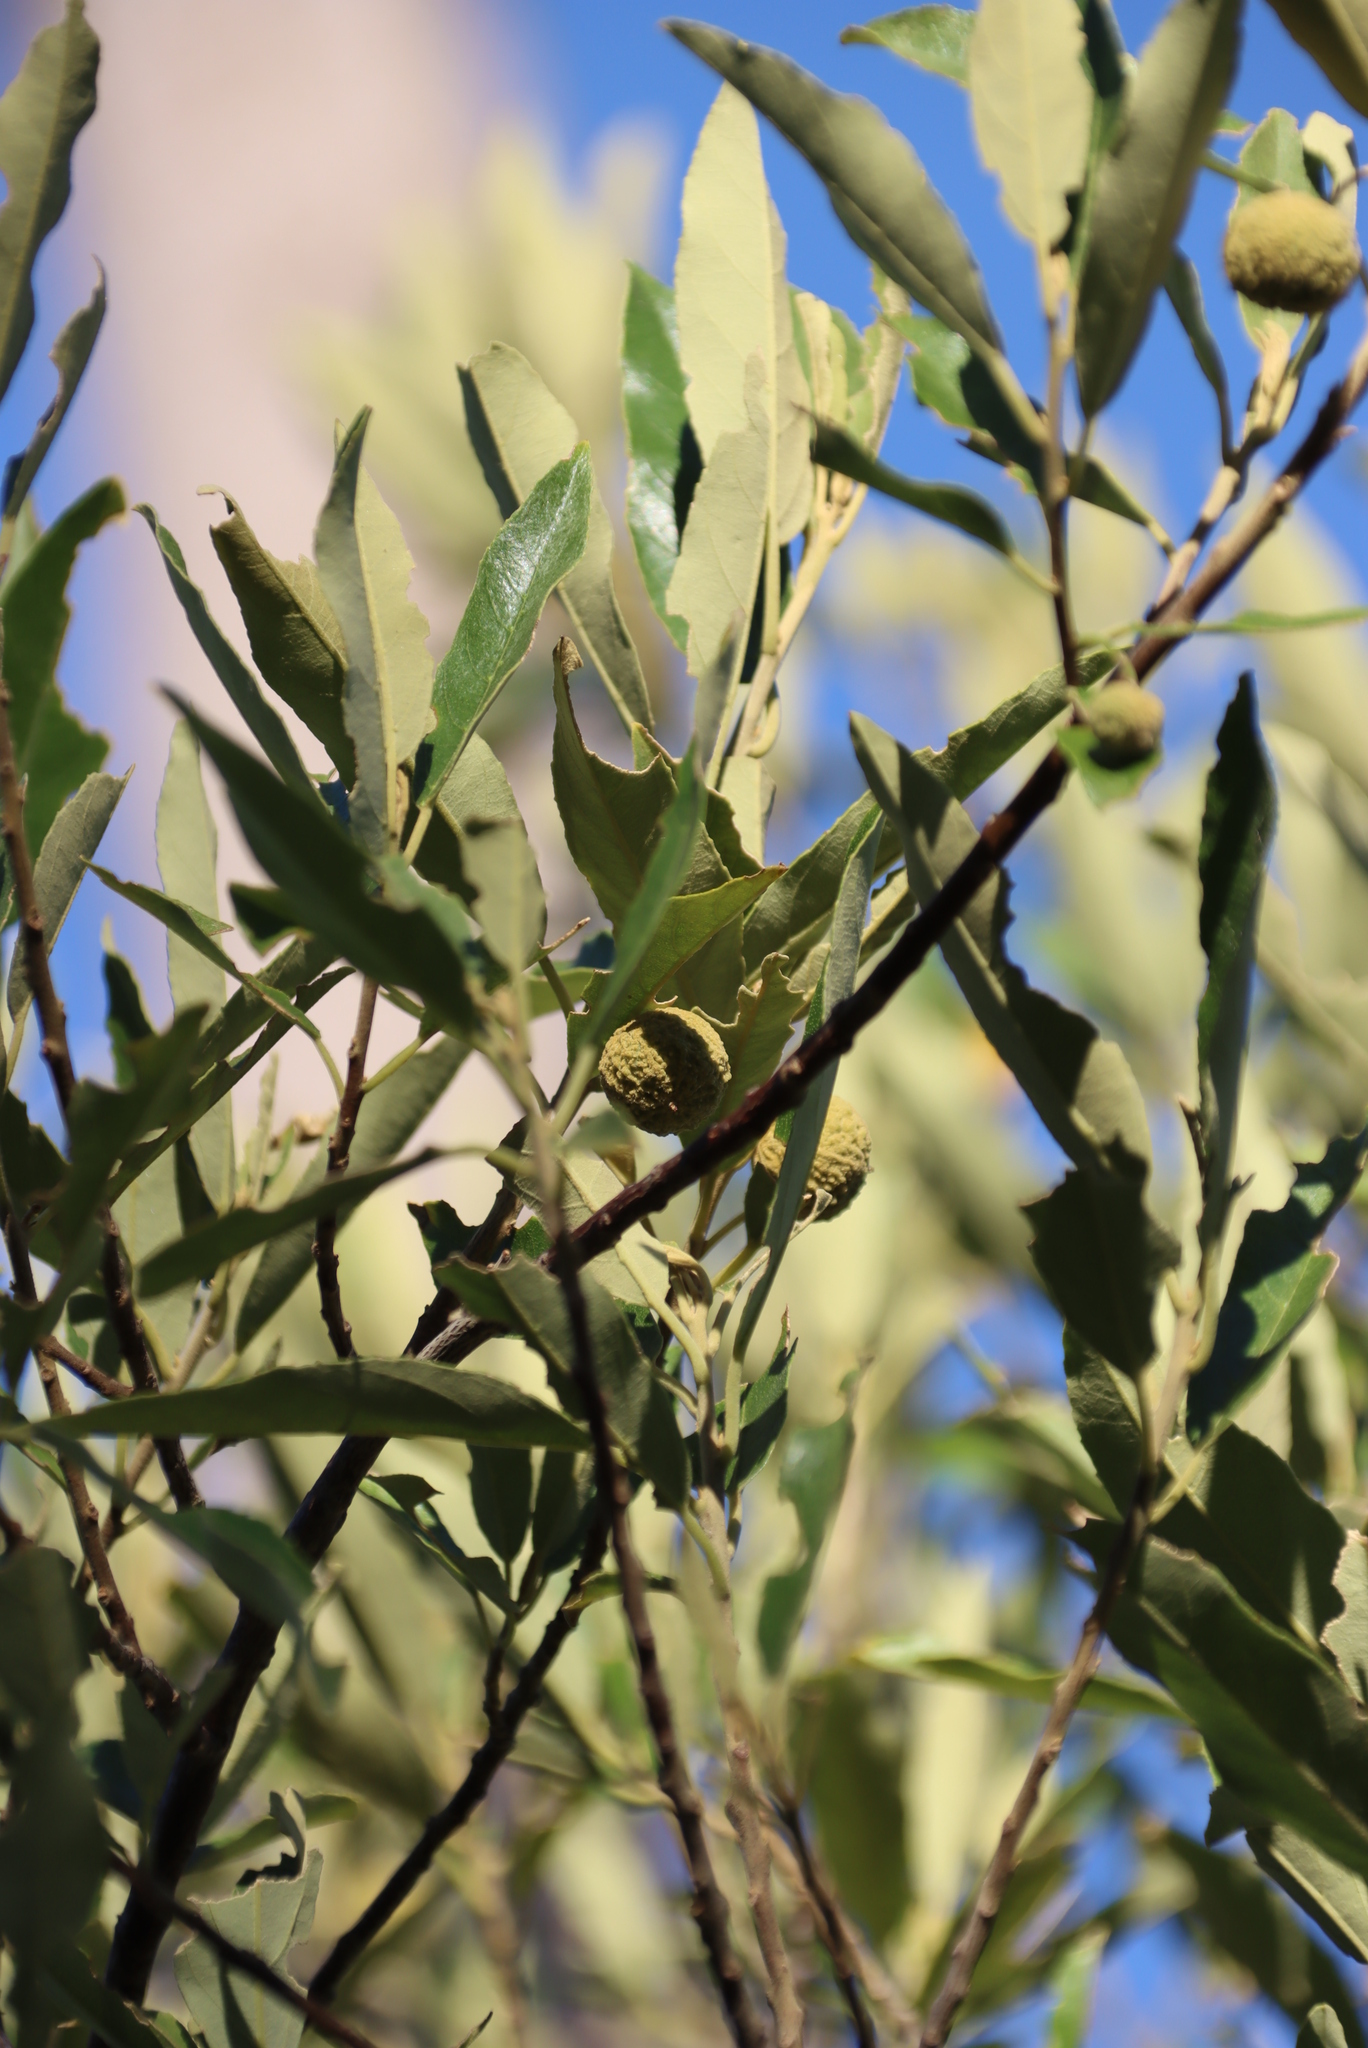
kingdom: Plantae
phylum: Tracheophyta
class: Magnoliopsida
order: Malpighiales
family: Achariaceae
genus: Kiggelaria
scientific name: Kiggelaria africana
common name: Wild peach
